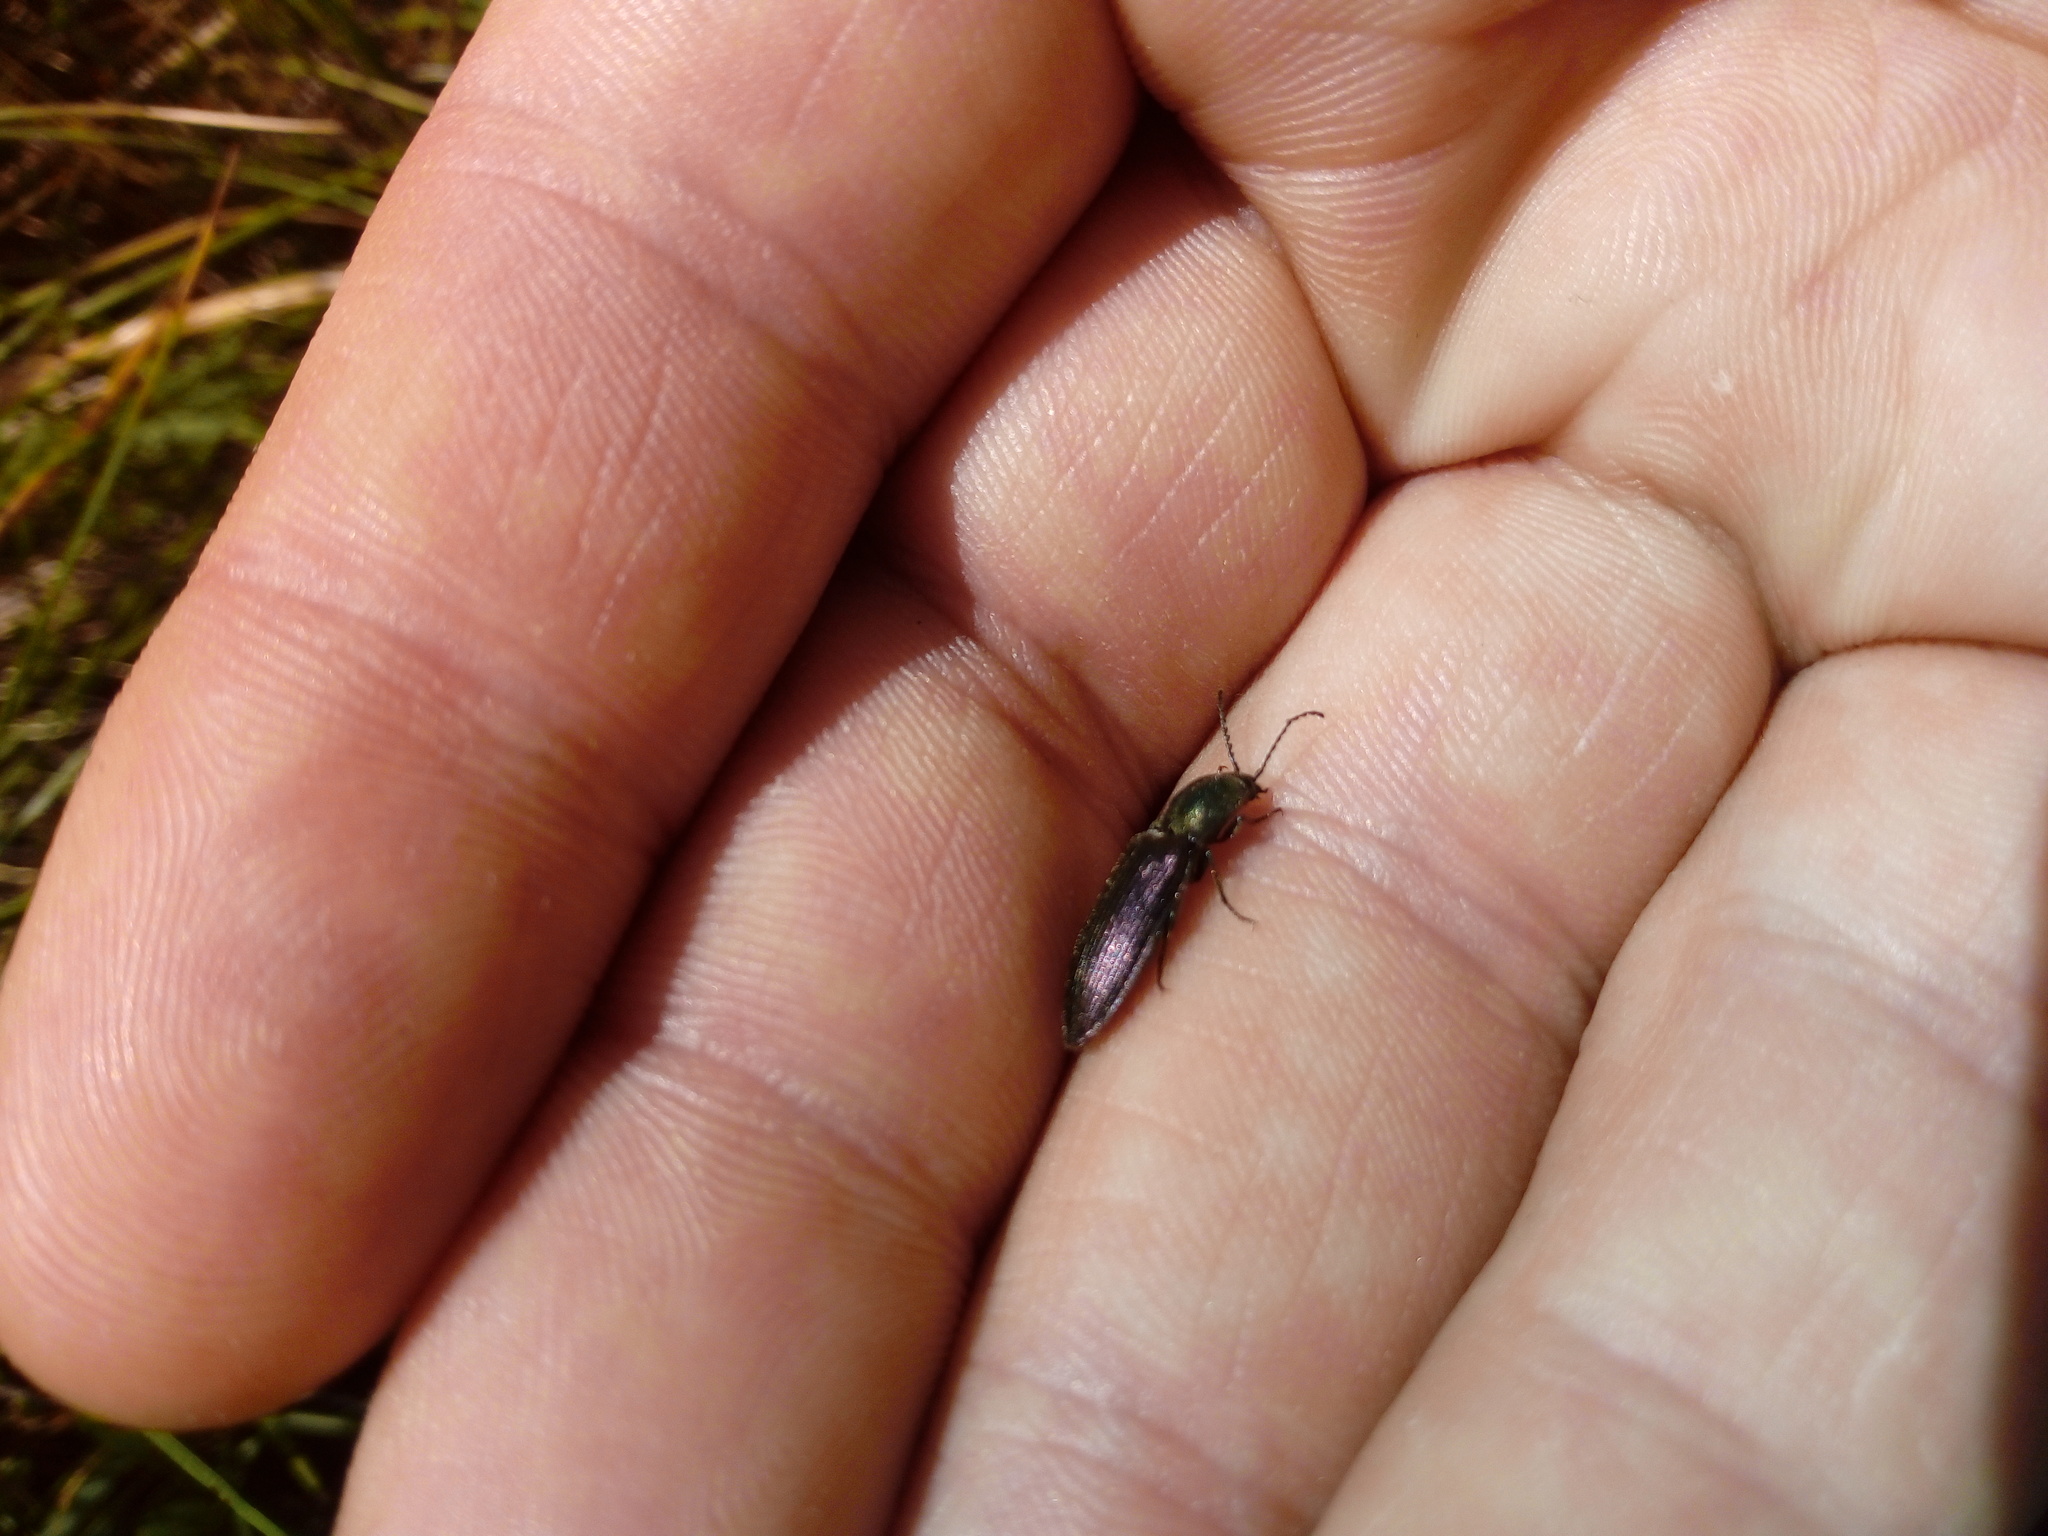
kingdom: Animalia
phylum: Arthropoda
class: Insecta
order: Coleoptera
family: Elateridae
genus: Ctenicera
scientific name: Ctenicera cuprea
